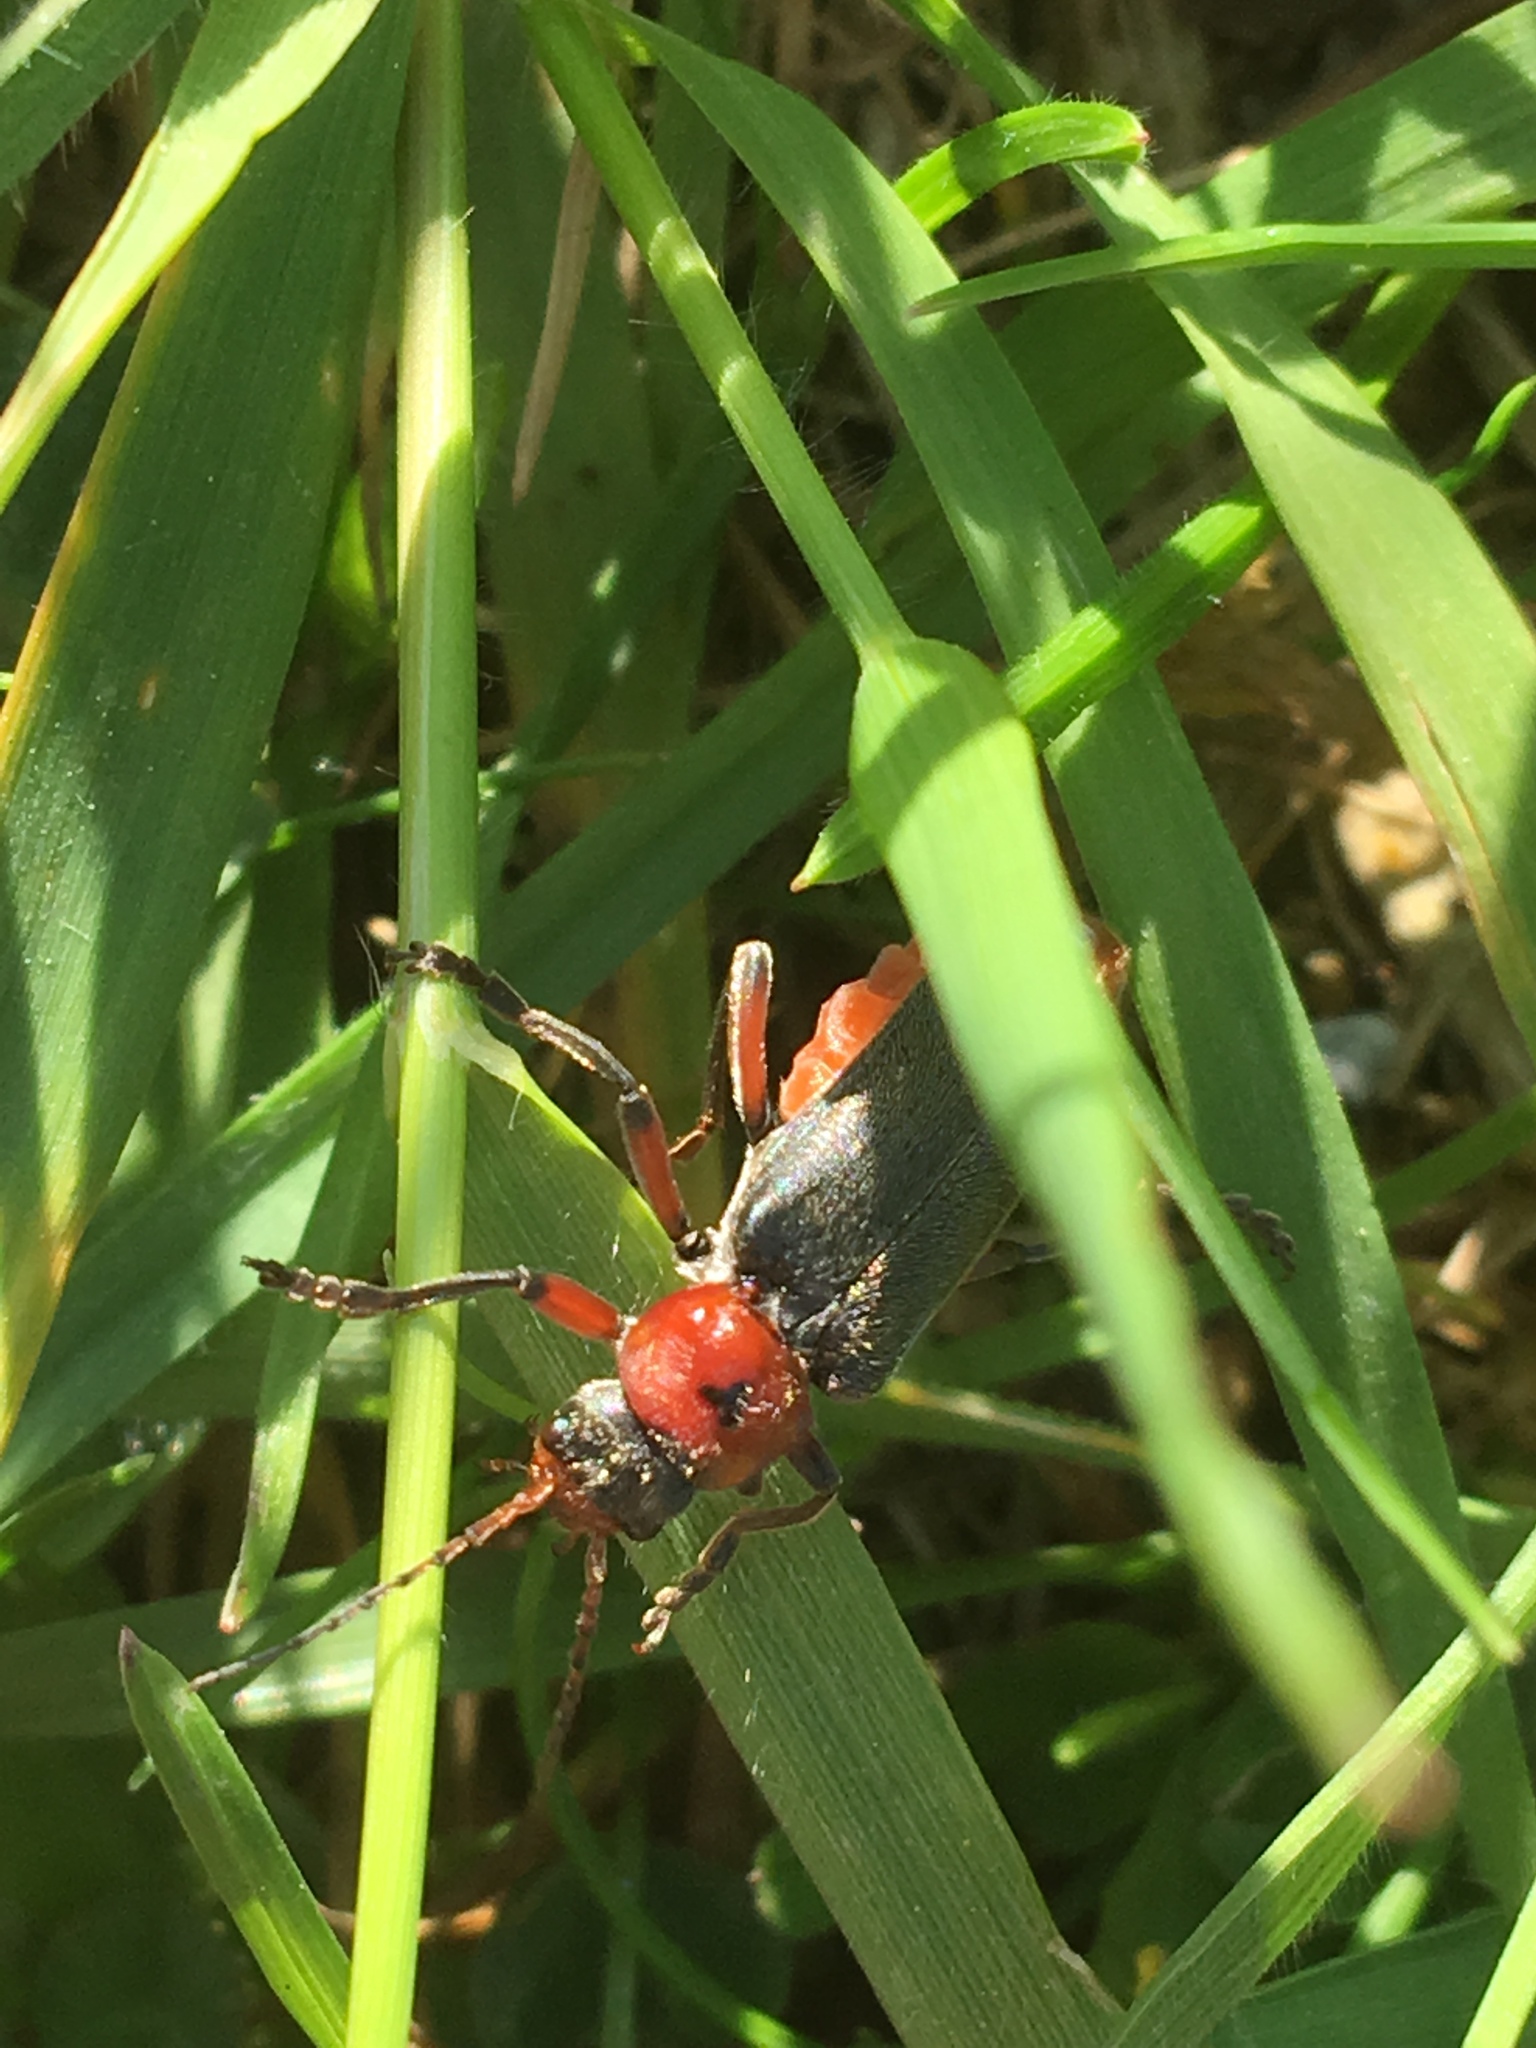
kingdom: Animalia
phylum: Arthropoda
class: Insecta
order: Coleoptera
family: Cantharidae
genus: Cantharis
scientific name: Cantharis rustica
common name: Soldier beetle
